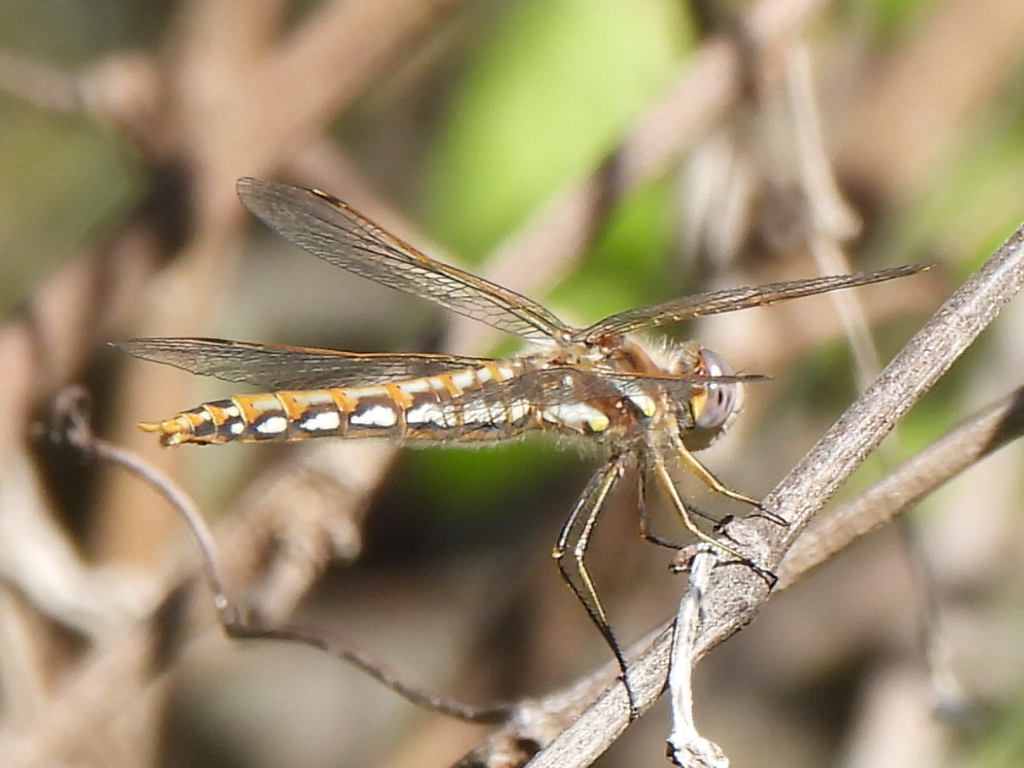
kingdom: Animalia
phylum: Arthropoda
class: Insecta
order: Odonata
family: Libellulidae
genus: Sympetrum
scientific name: Sympetrum corruptum
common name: Variegated meadowhawk
